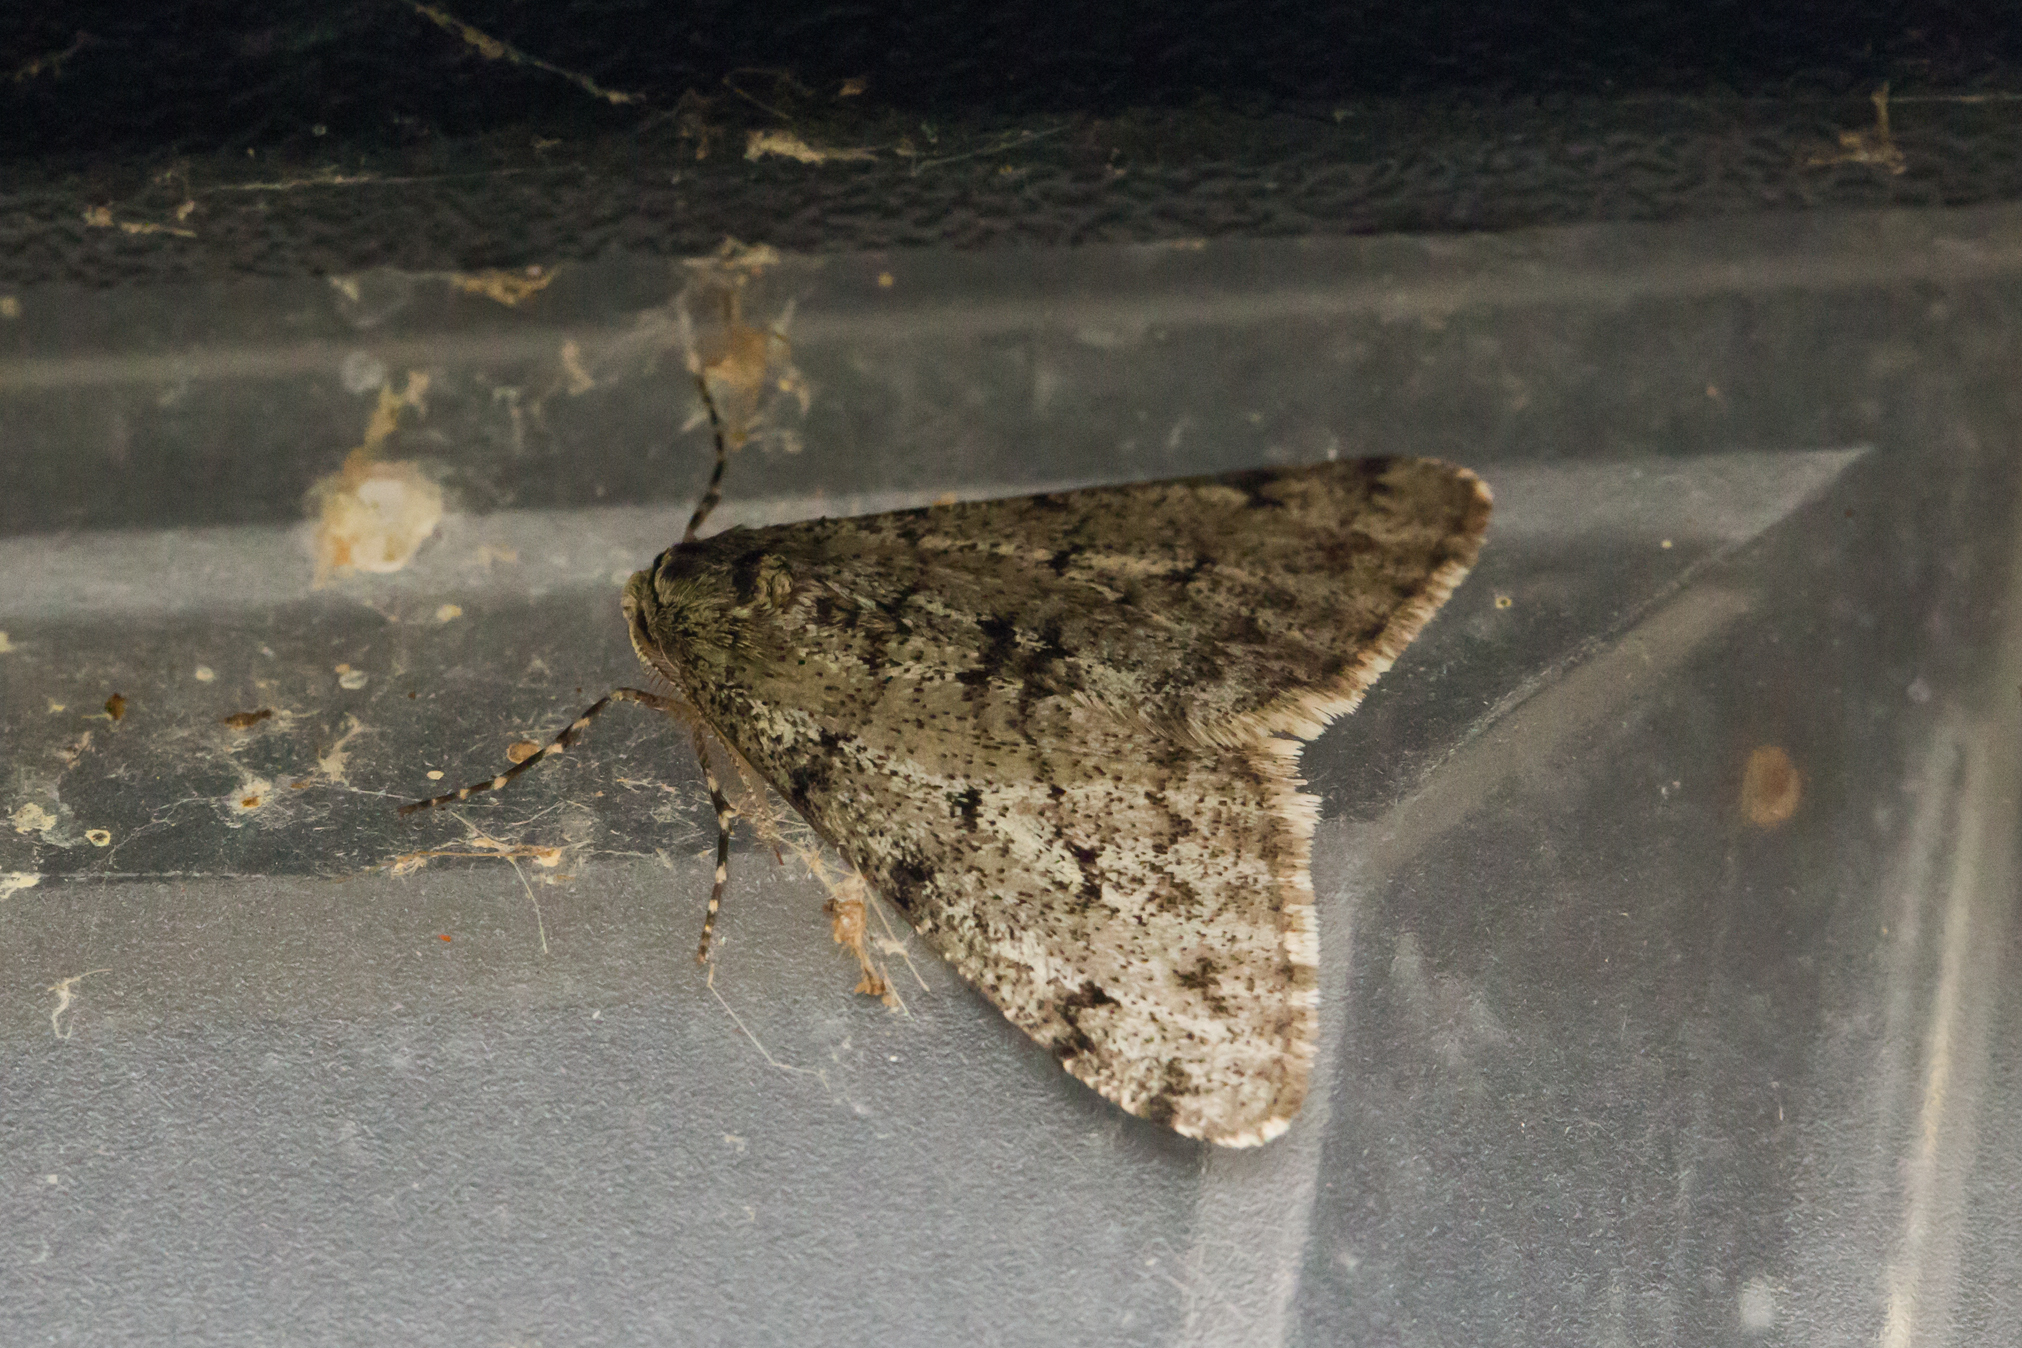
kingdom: Animalia
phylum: Arthropoda
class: Insecta
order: Lepidoptera
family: Geometridae
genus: Phigalia
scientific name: Phigalia strigataria
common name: Small phigalia
